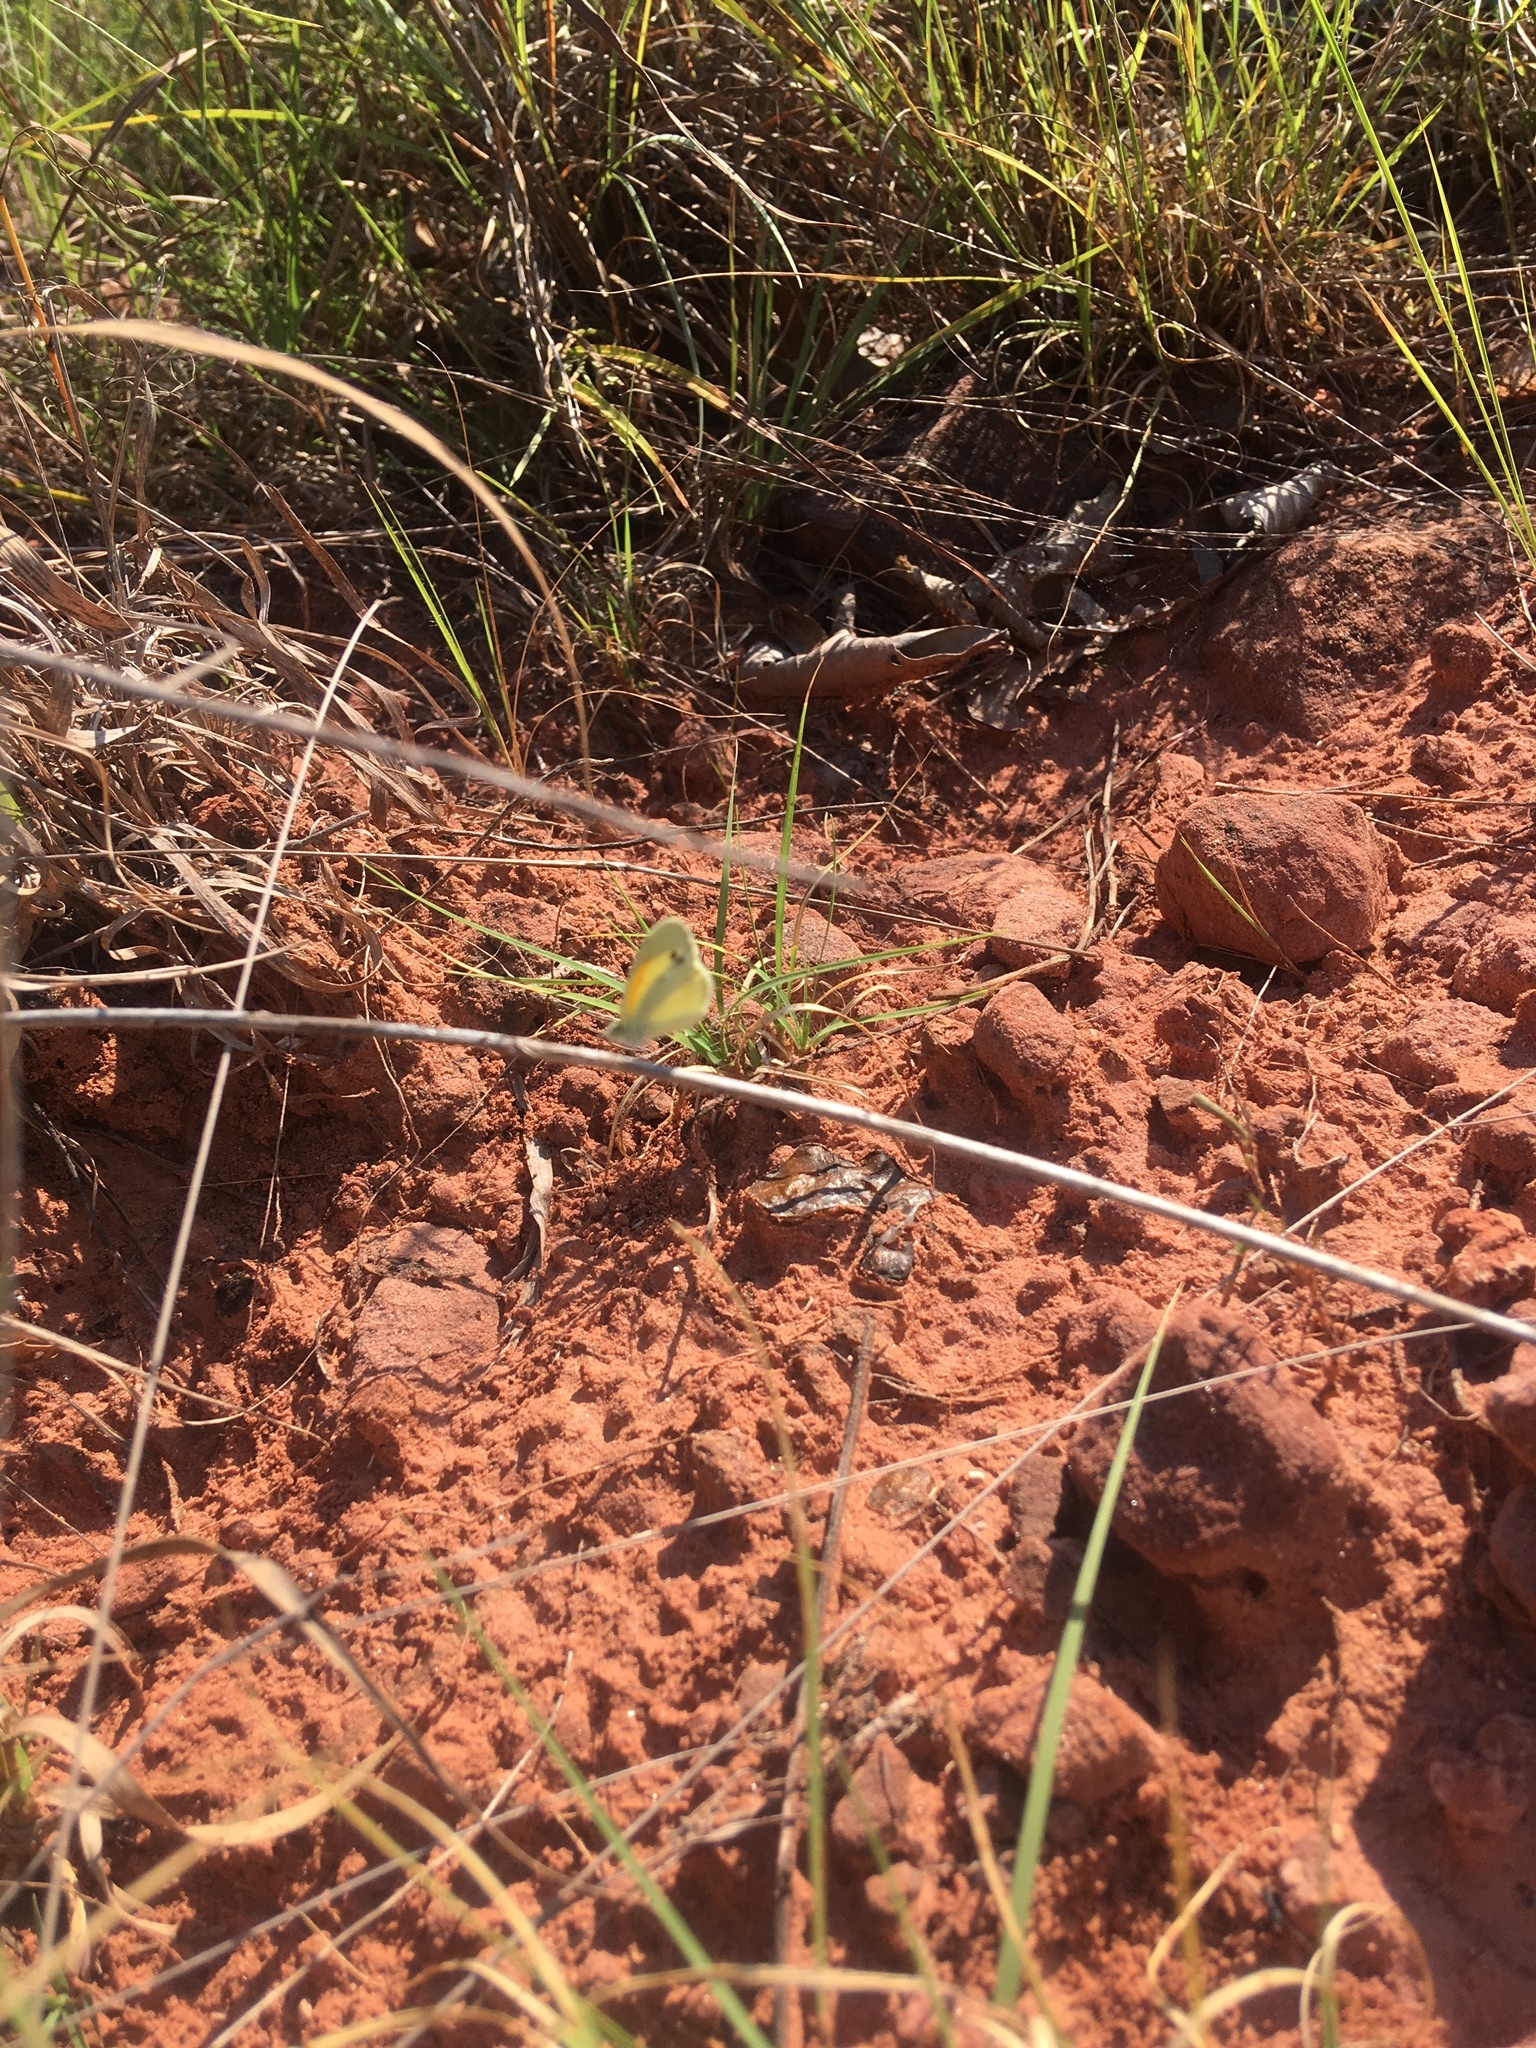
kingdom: Animalia
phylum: Arthropoda
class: Insecta
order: Lepidoptera
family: Pieridae
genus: Nathalis
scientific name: Nathalis iole
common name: Dainty sulphur
